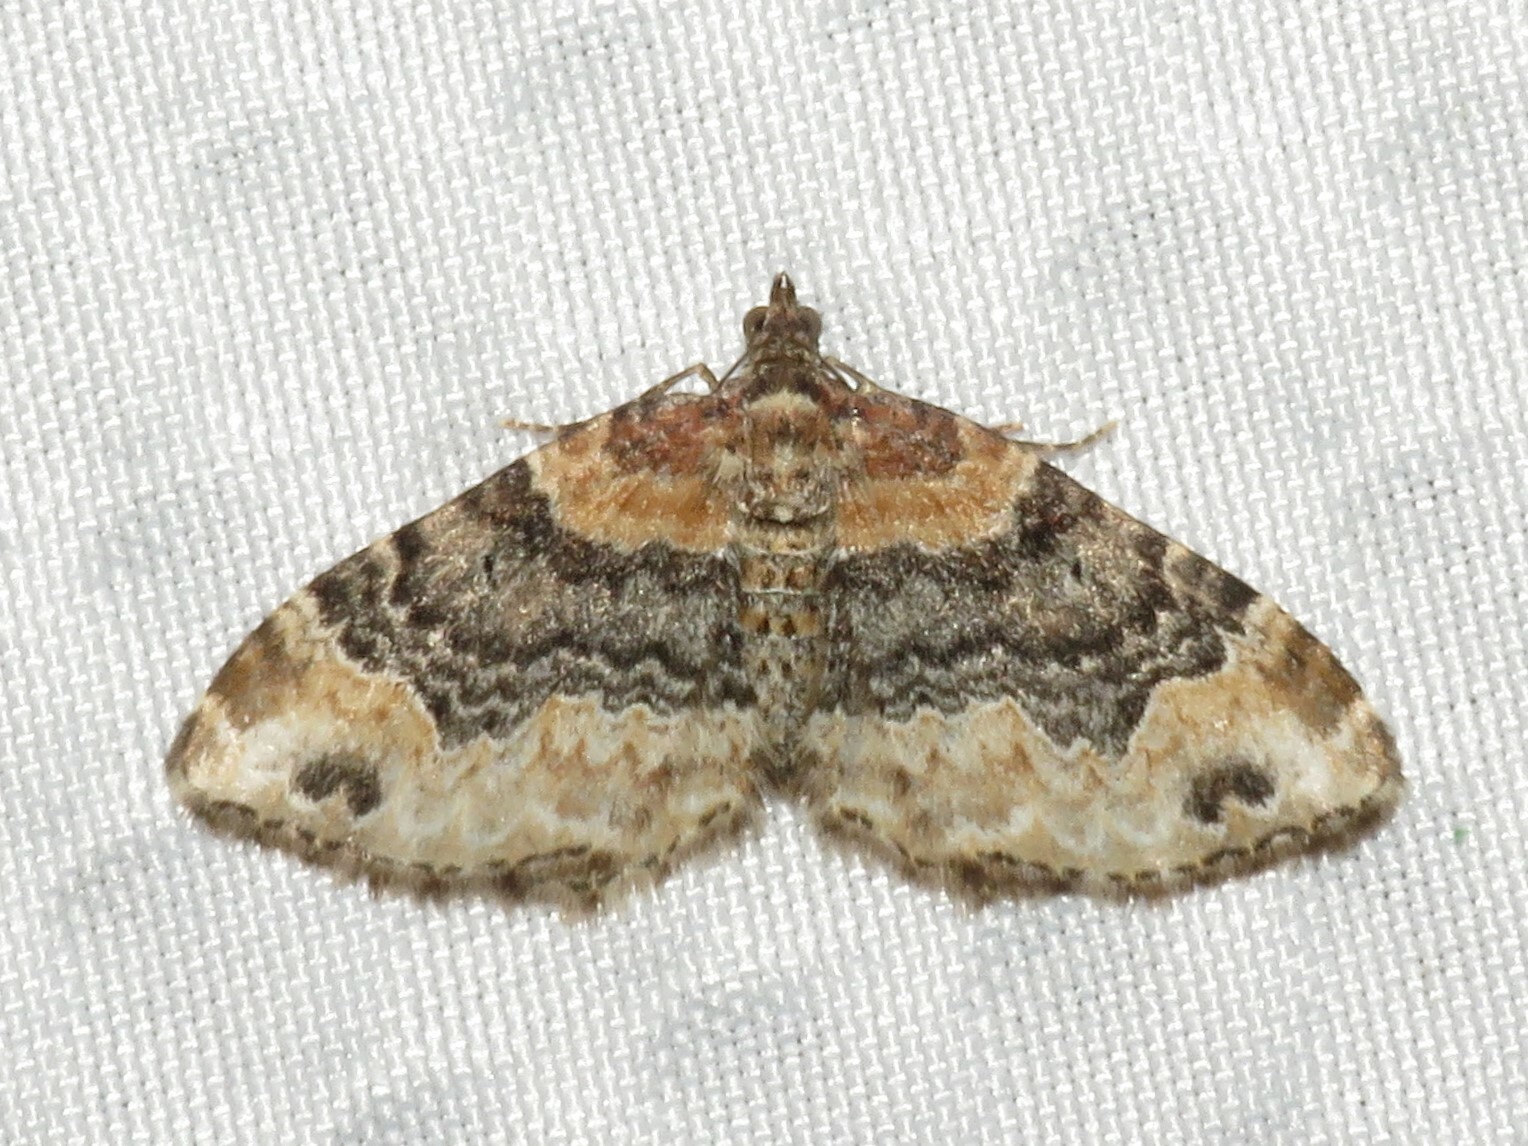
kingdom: Animalia
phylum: Arthropoda
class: Insecta
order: Lepidoptera
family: Geometridae
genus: Xanthorhoe
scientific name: Xanthorhoe ferrugata
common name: Dark-barred twin-spot carpet
